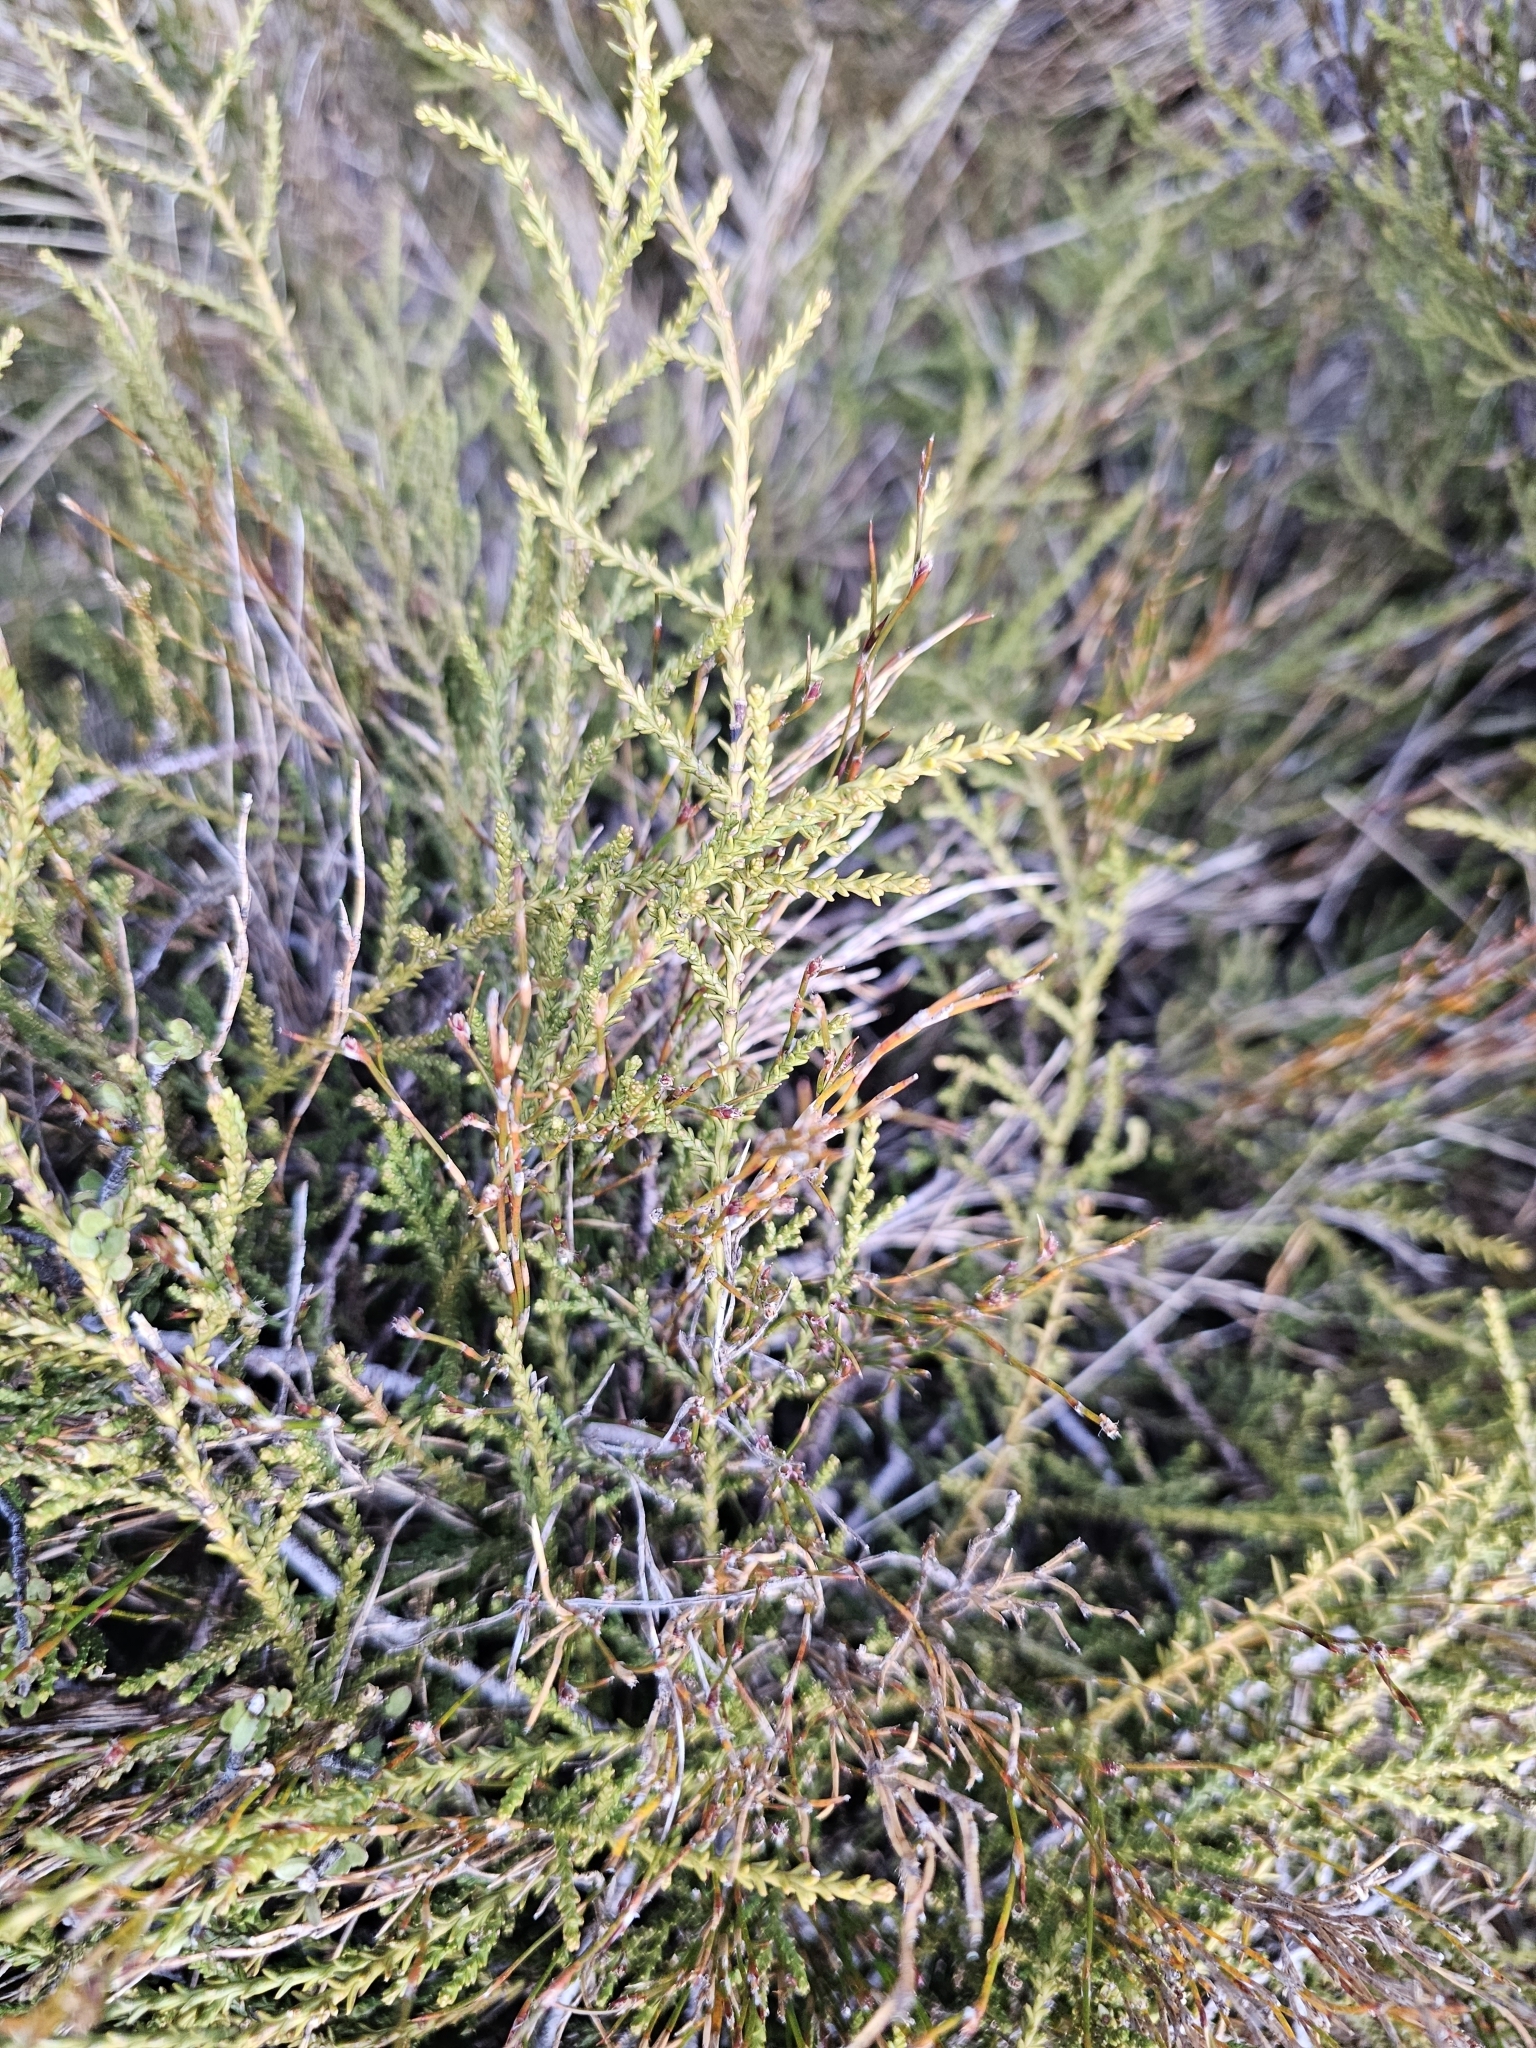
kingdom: Plantae
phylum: Tracheophyta
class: Pinopsida
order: Pinales
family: Podocarpaceae
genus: Lepidothamnus
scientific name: Lepidothamnus laxifolius
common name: Pygmy pine
